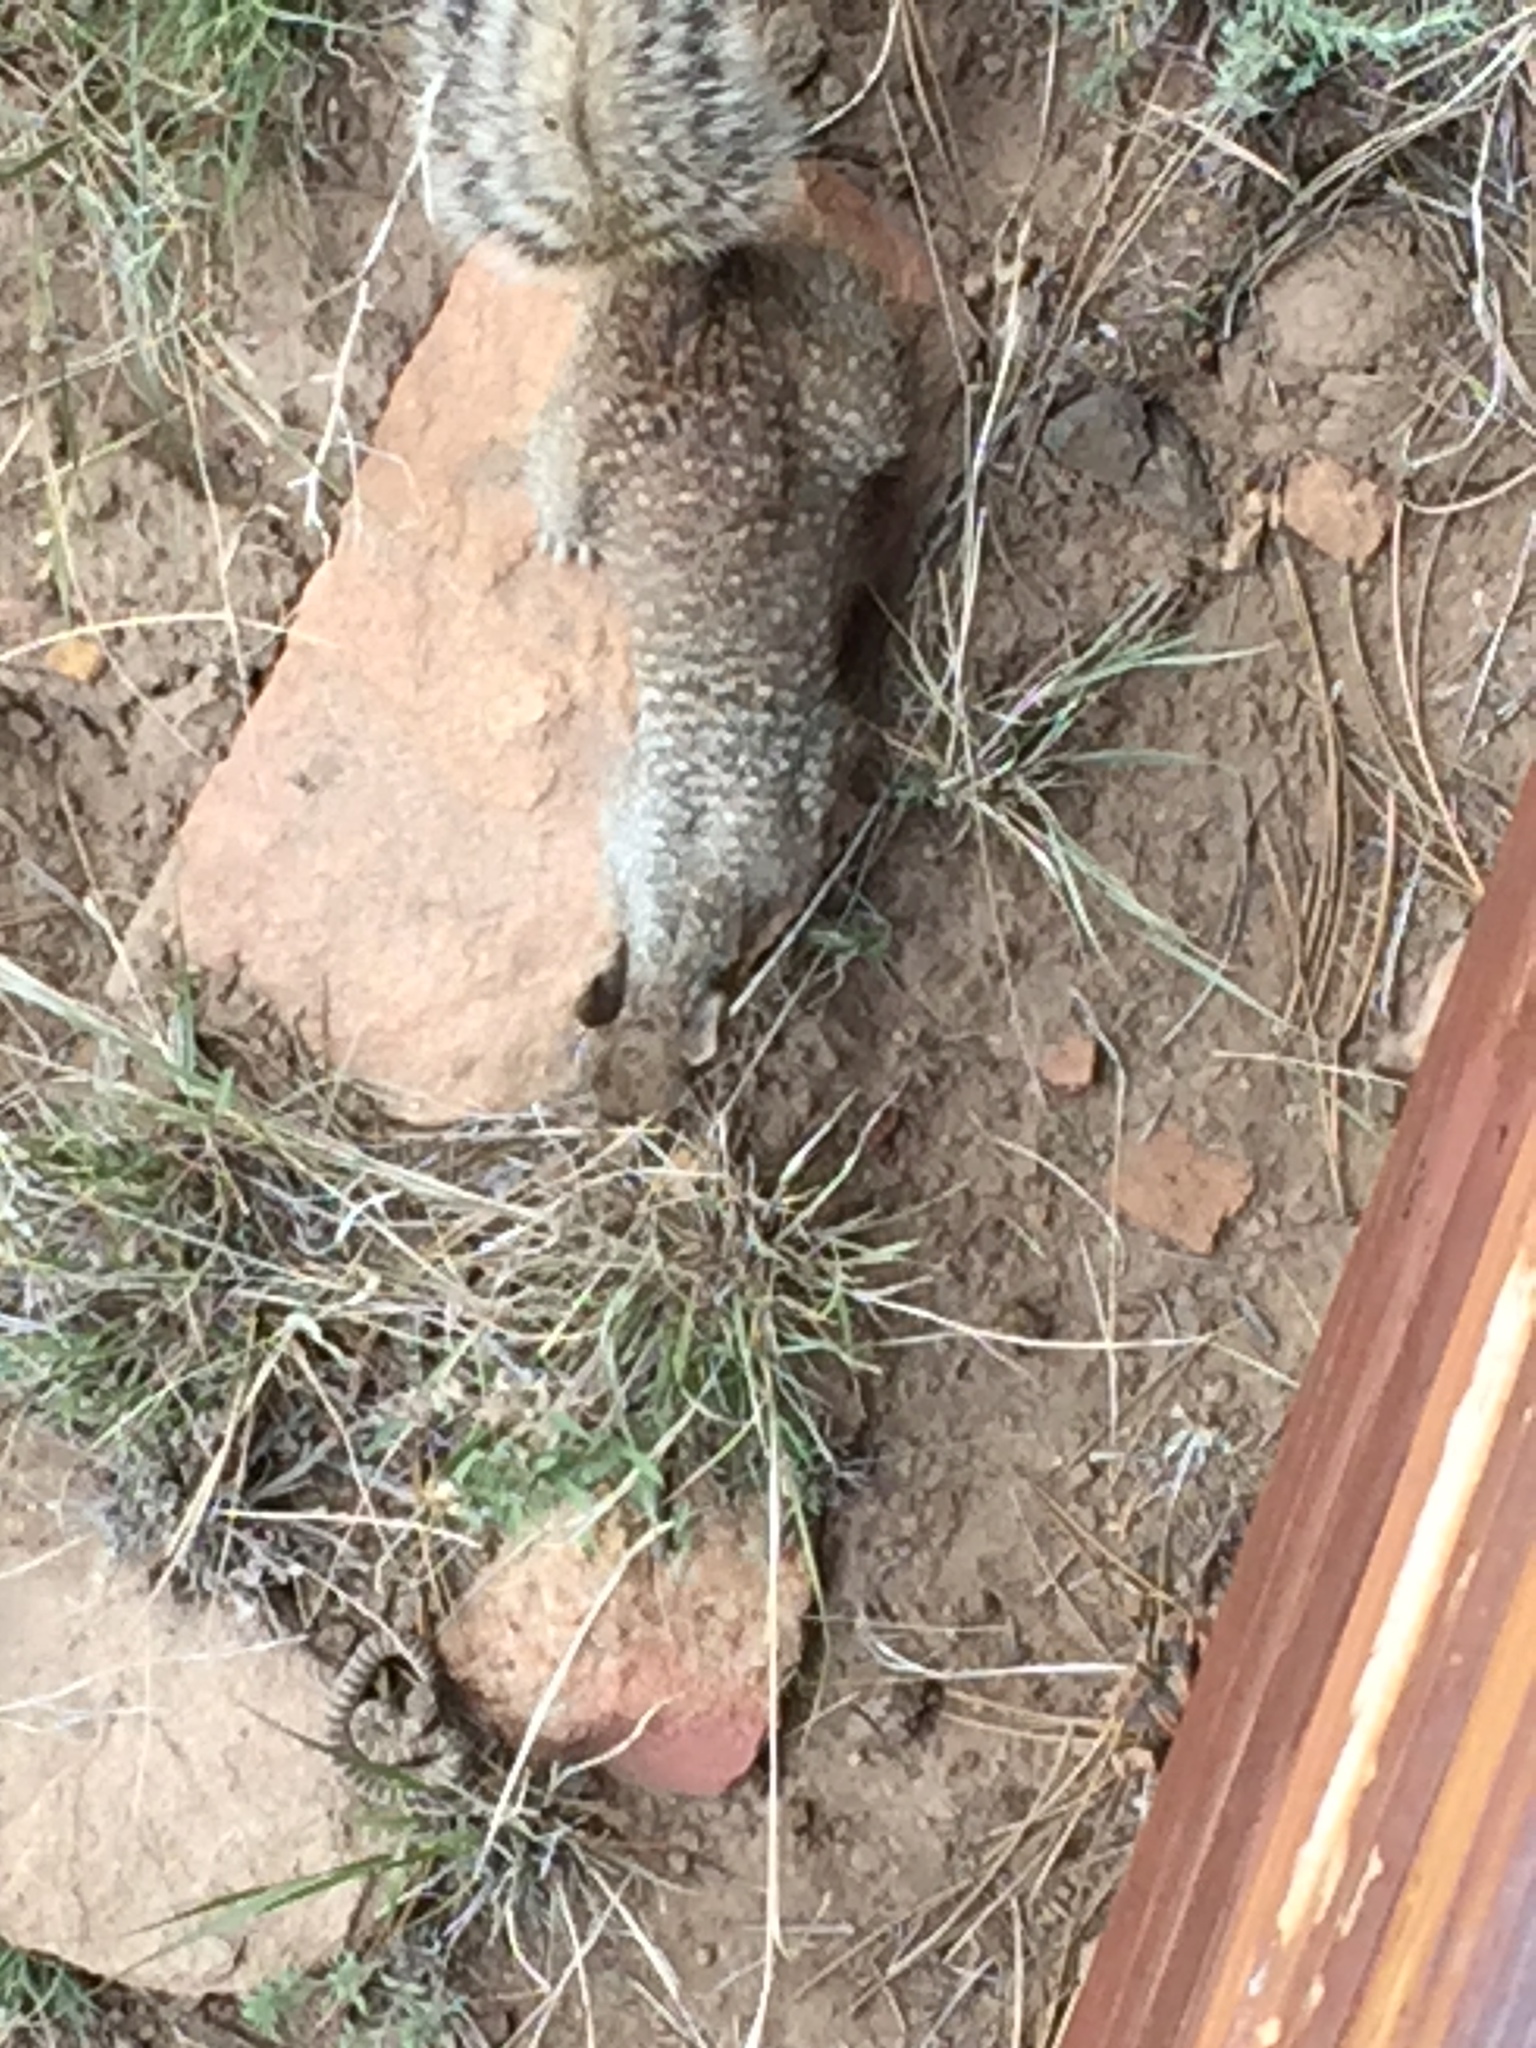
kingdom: Animalia
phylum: Chordata
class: Mammalia
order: Rodentia
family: Sciuridae
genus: Otospermophilus
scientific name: Otospermophilus variegatus
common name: Rock squirrel
